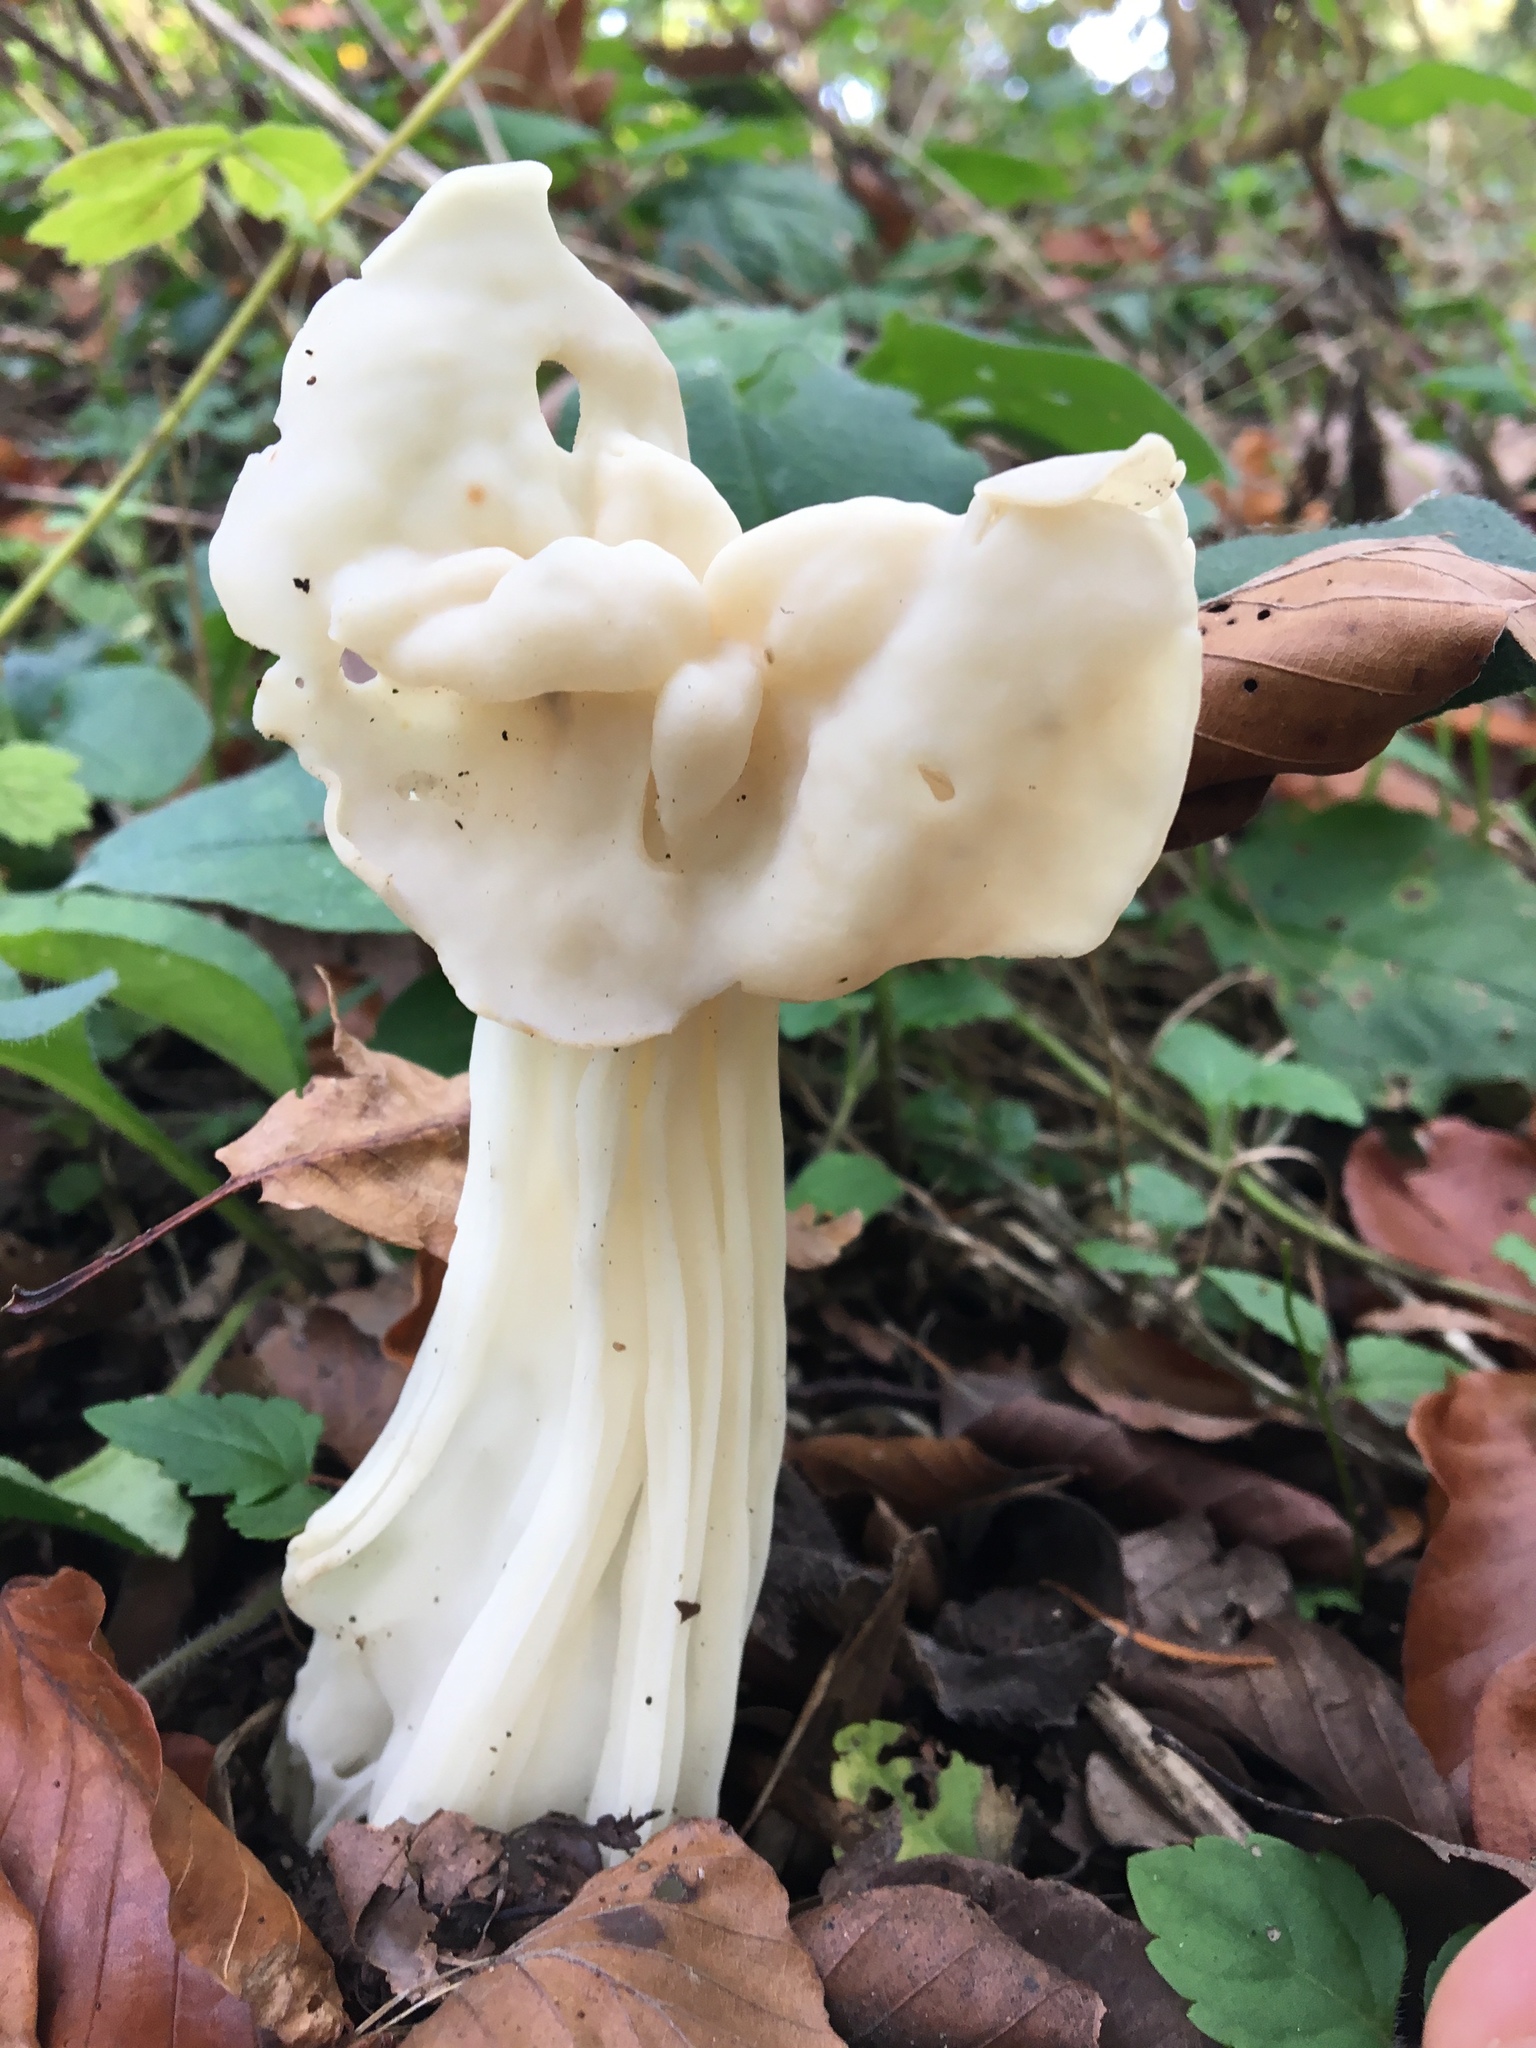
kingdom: Fungi
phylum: Ascomycota
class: Pezizomycetes
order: Pezizales
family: Helvellaceae
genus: Helvella
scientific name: Helvella crispa
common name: White saddle
